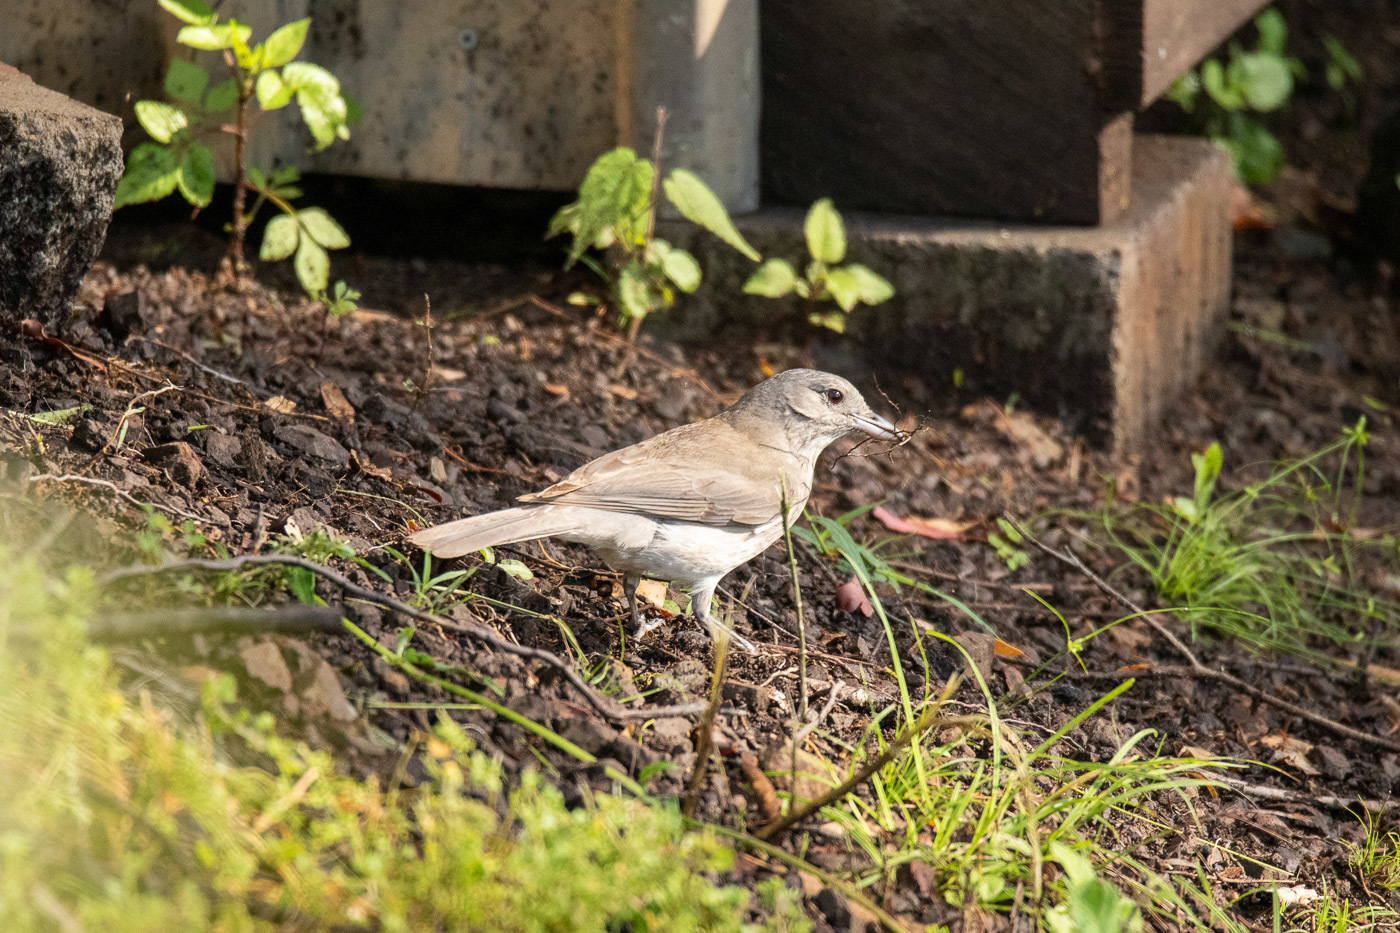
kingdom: Animalia
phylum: Chordata
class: Aves
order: Passeriformes
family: Pachycephalidae
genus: Colluricincla
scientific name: Colluricincla harmonica
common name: Grey shrikethrush
